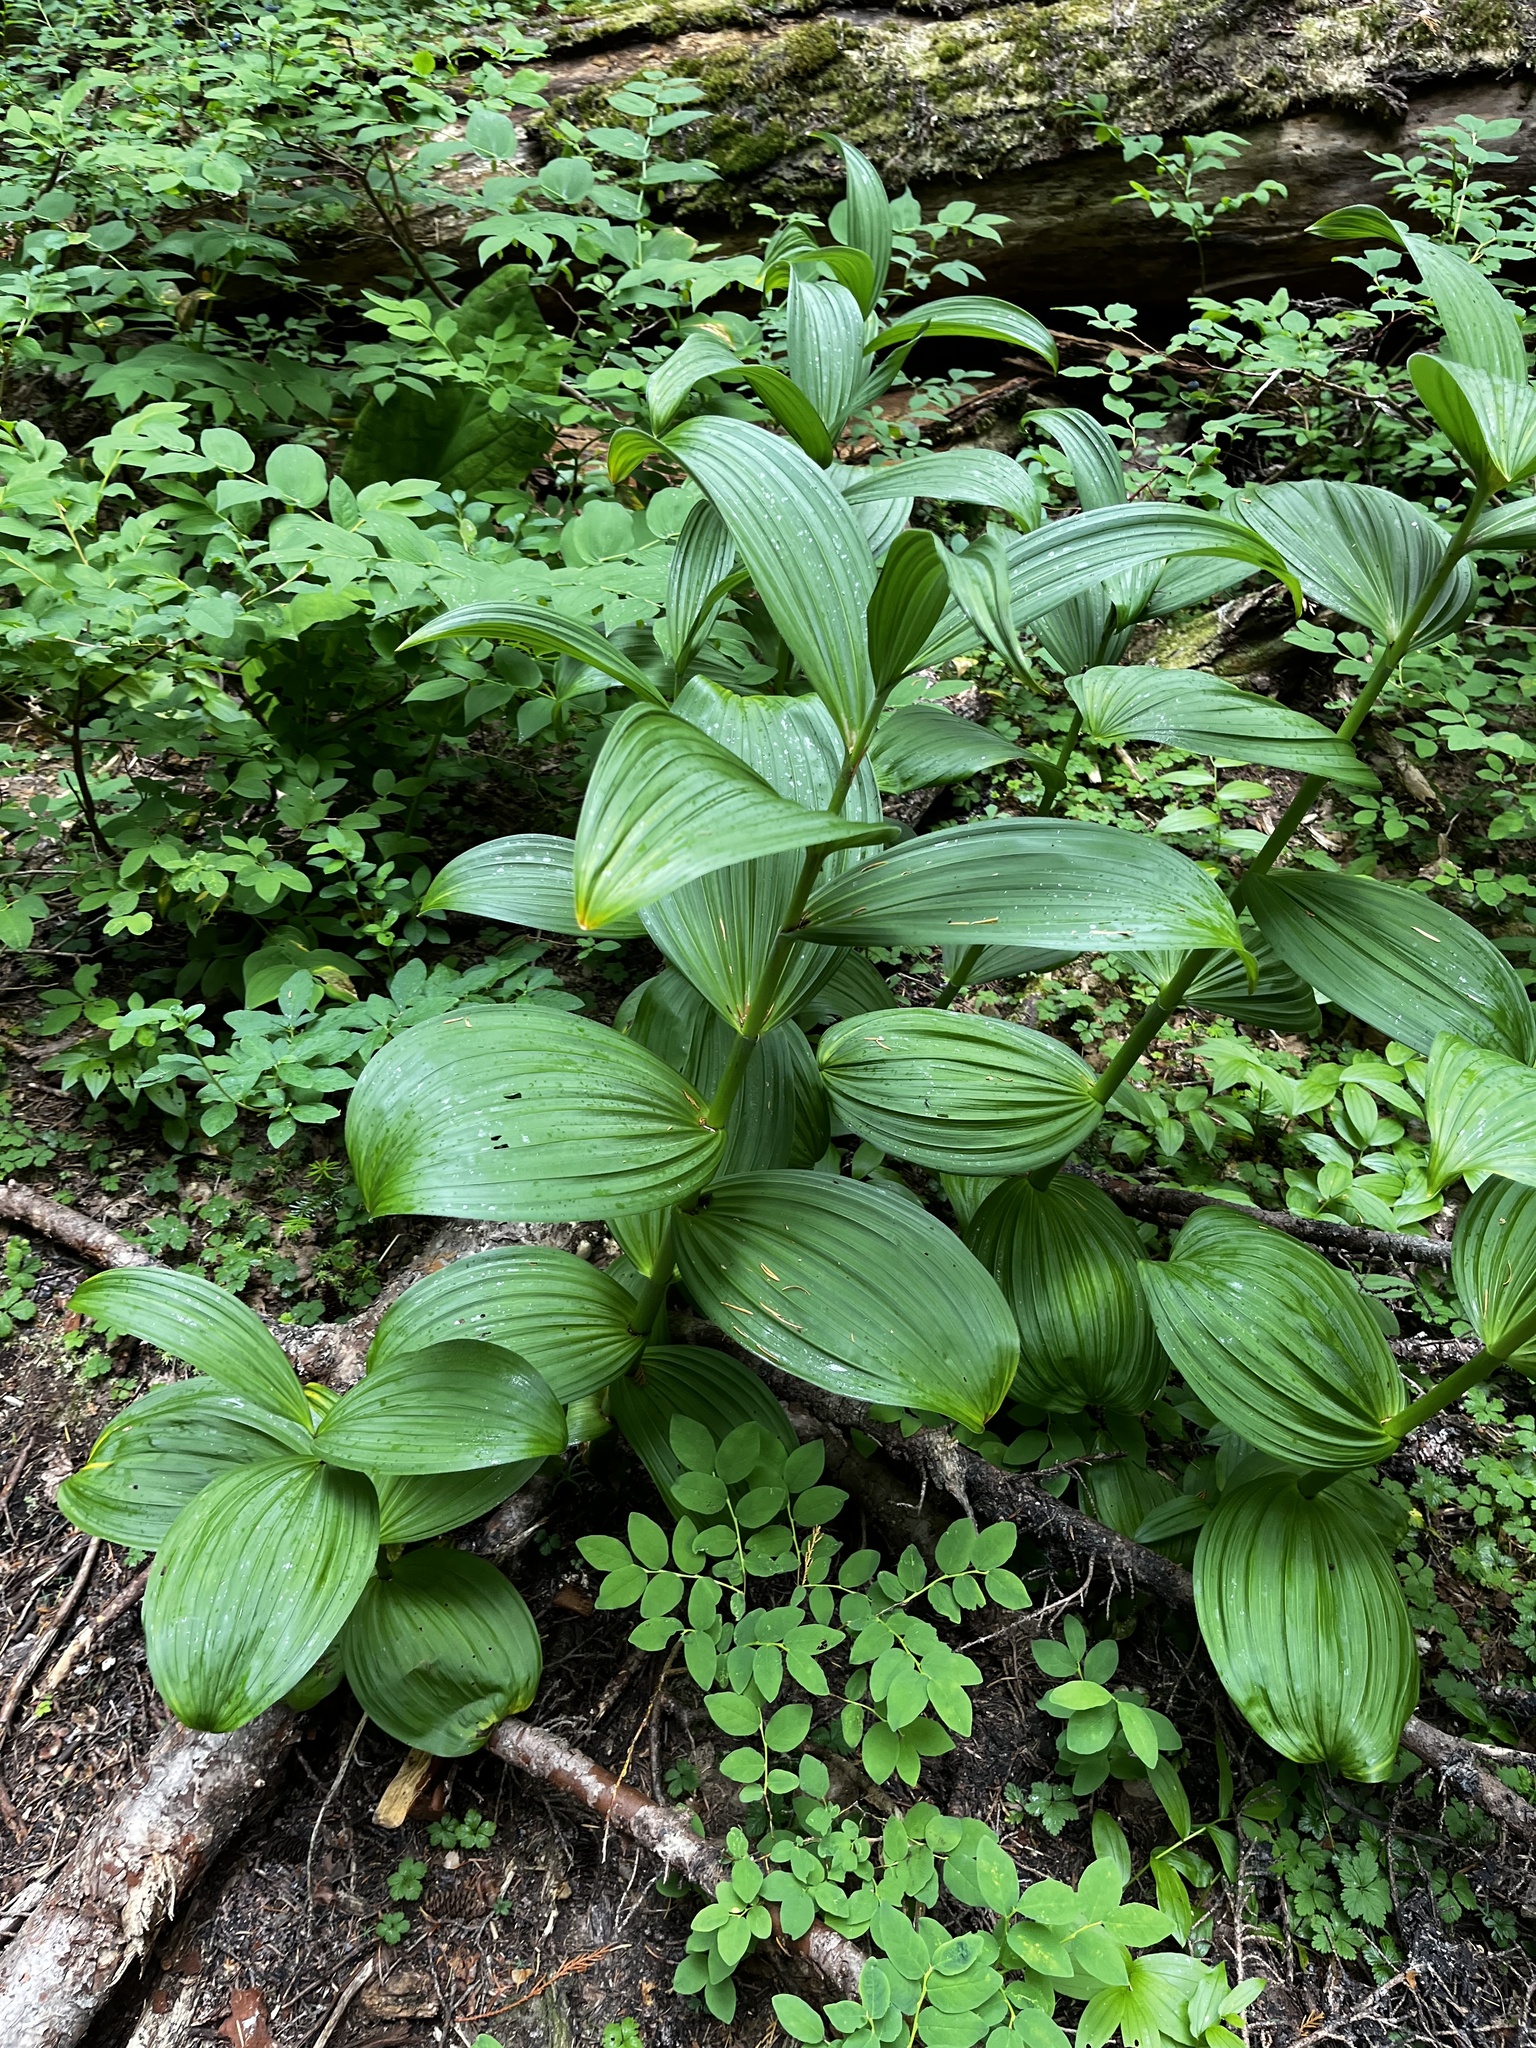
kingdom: Plantae
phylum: Tracheophyta
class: Liliopsida
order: Liliales
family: Melanthiaceae
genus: Veratrum
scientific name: Veratrum viride
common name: American false hellebore
